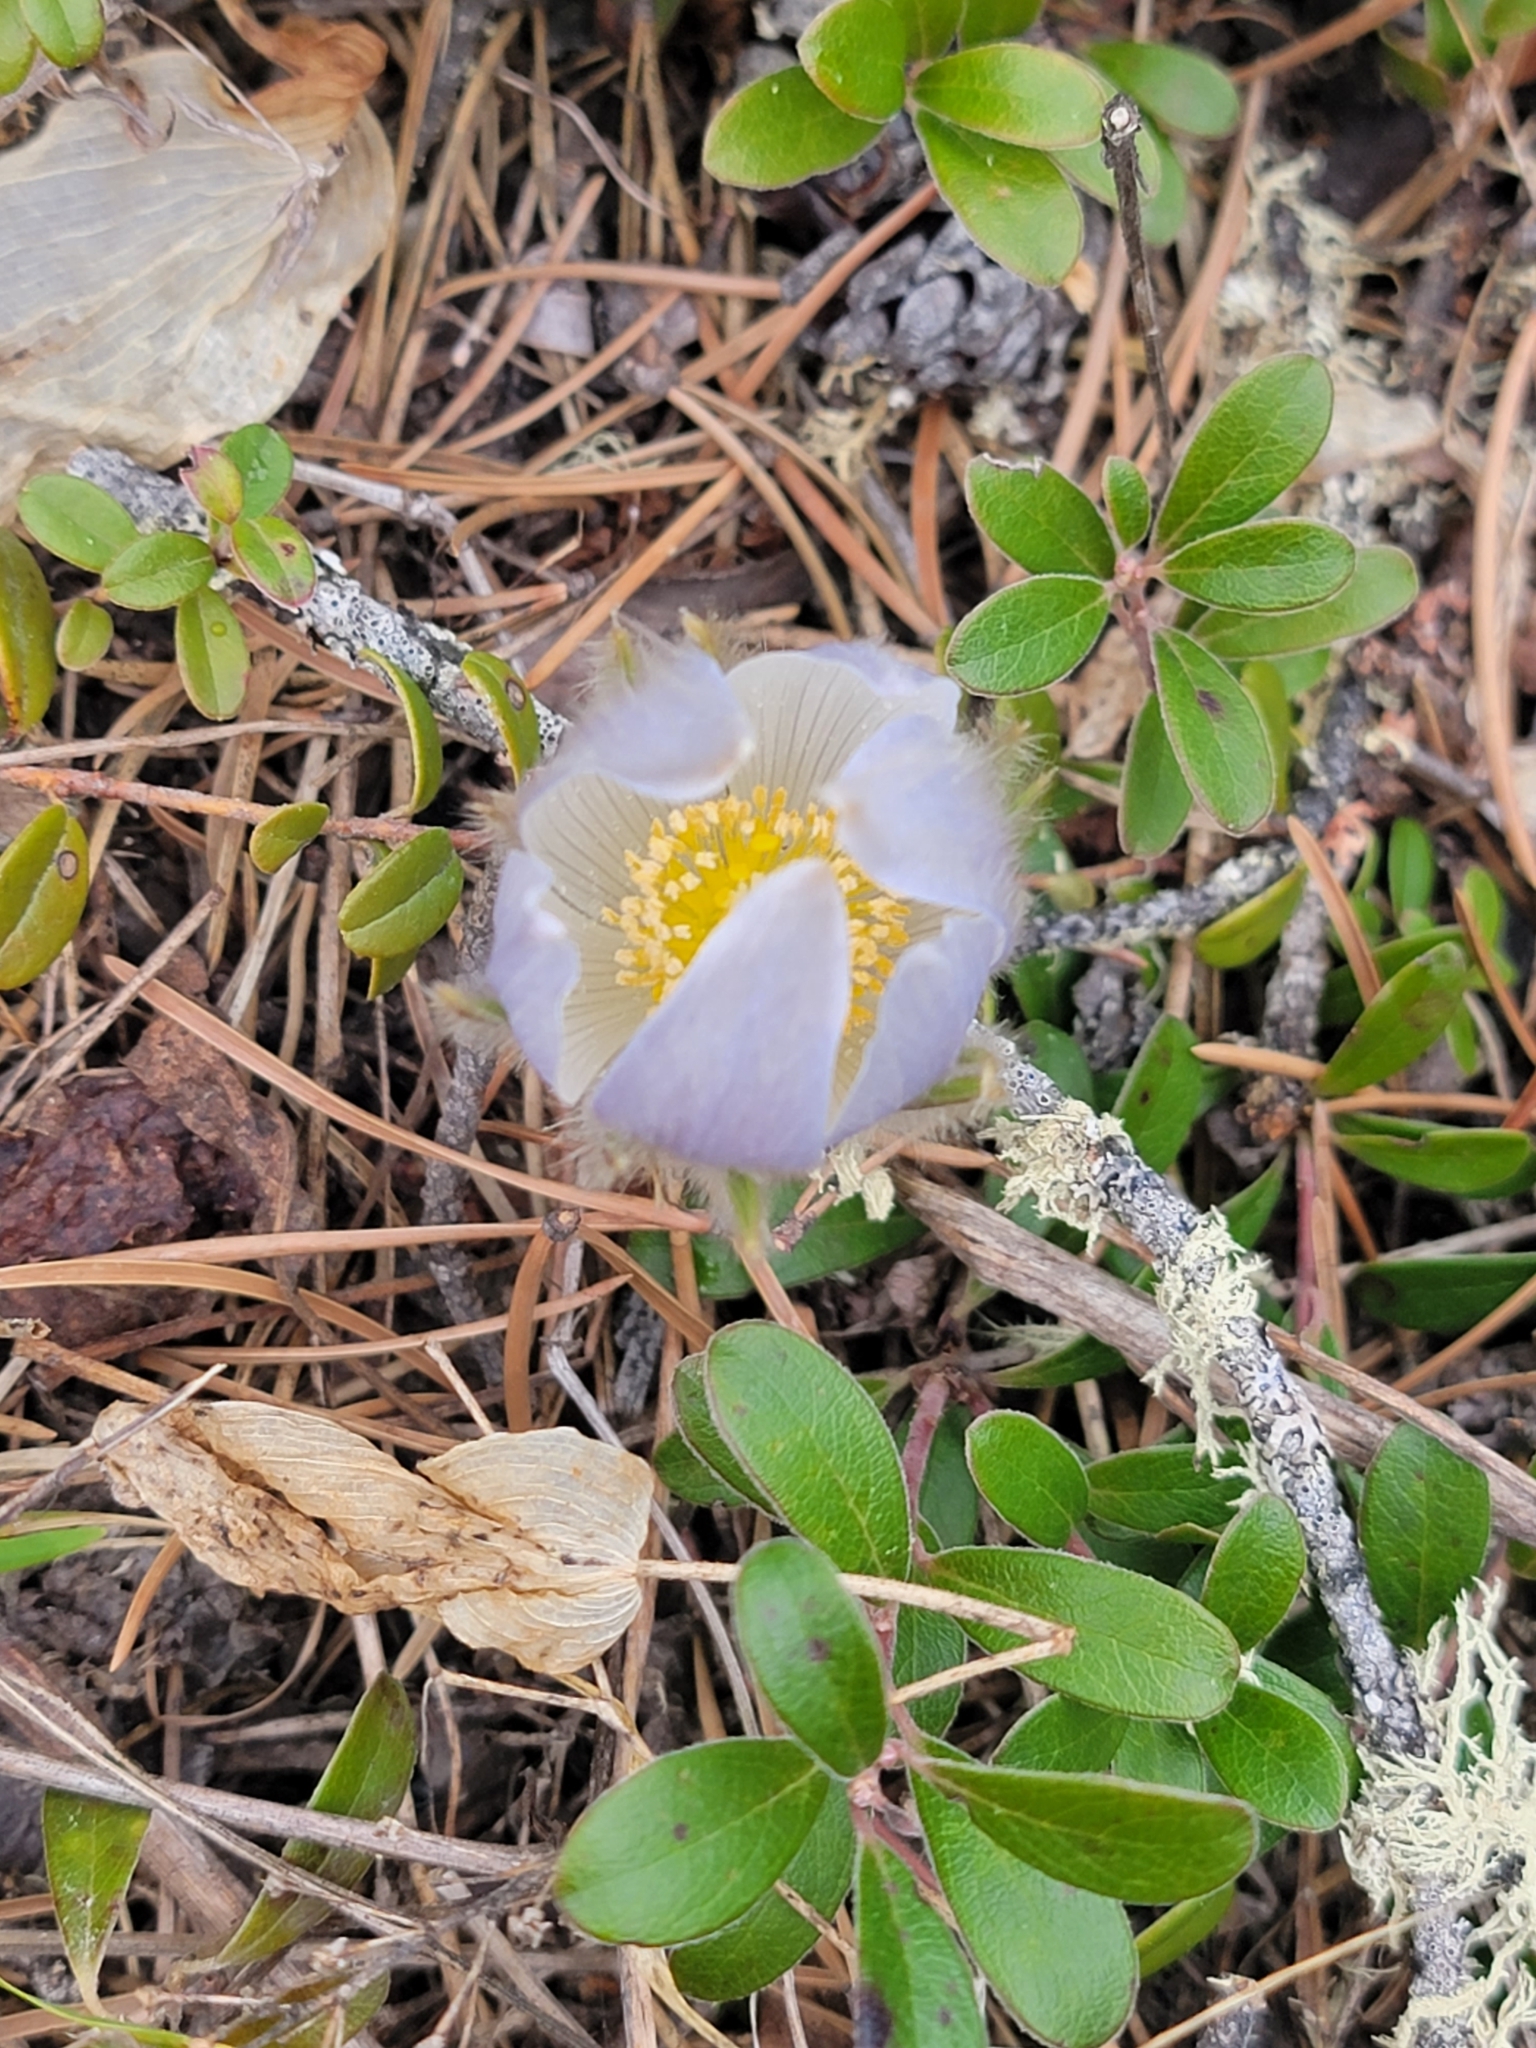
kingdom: Plantae
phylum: Tracheophyta
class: Magnoliopsida
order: Ranunculales
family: Ranunculaceae
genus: Pulsatilla
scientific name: Pulsatilla nuttalliana
